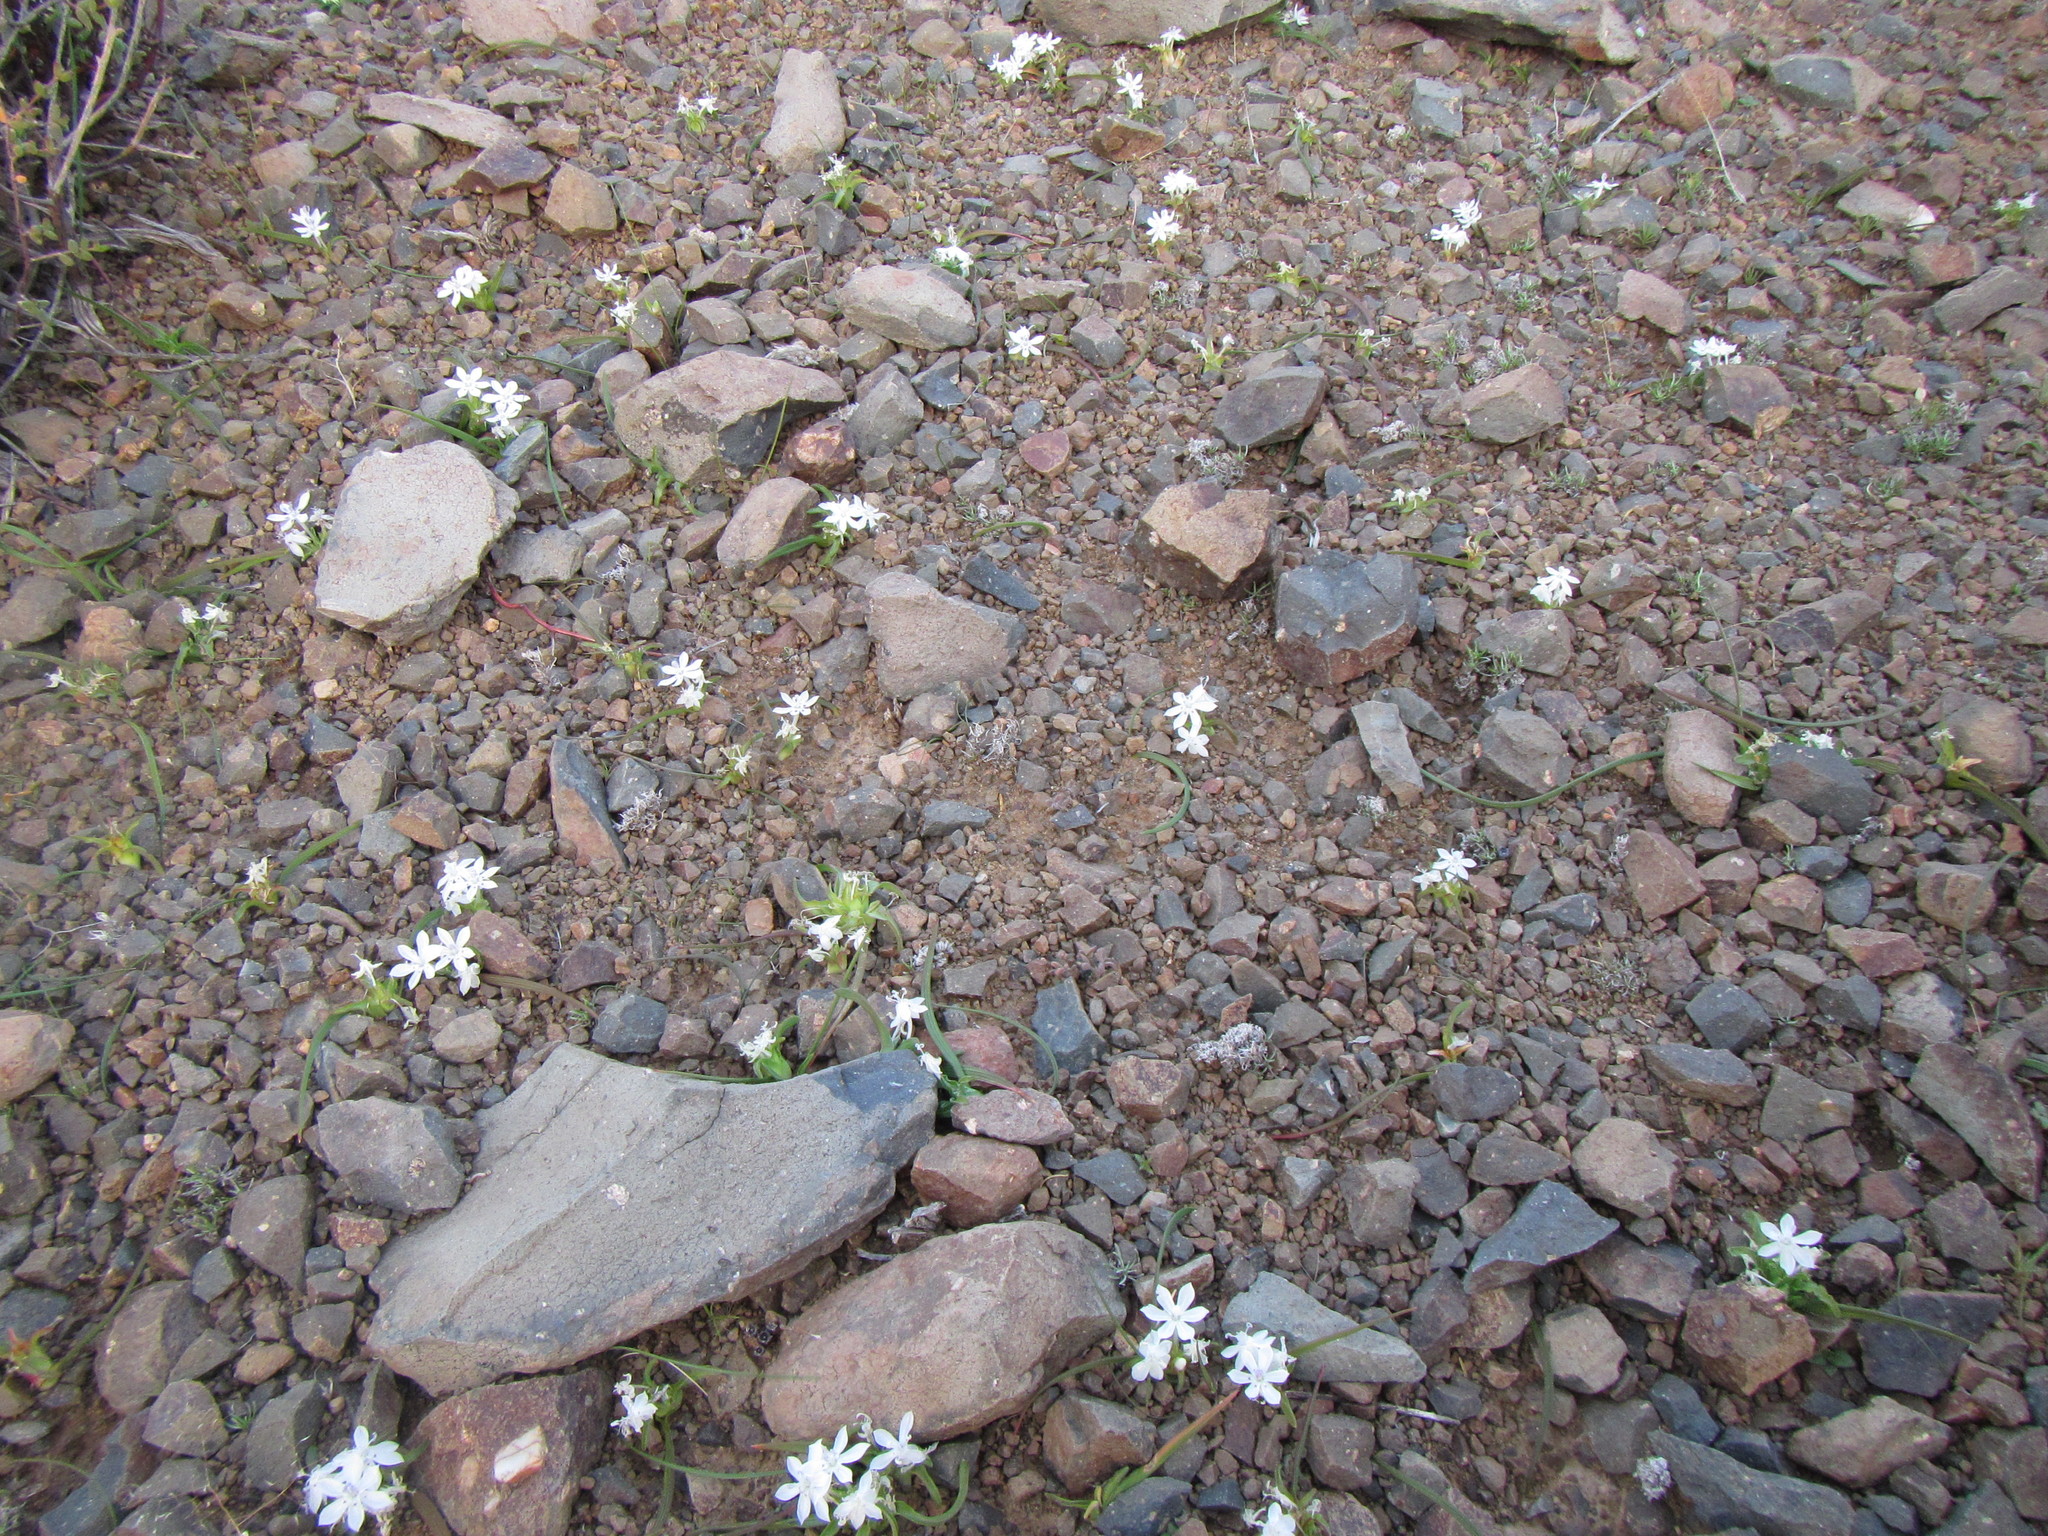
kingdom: Plantae
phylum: Tracheophyta
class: Liliopsida
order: Asparagales
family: Iridaceae
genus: Lapeirousia
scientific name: Lapeirousia plicata
